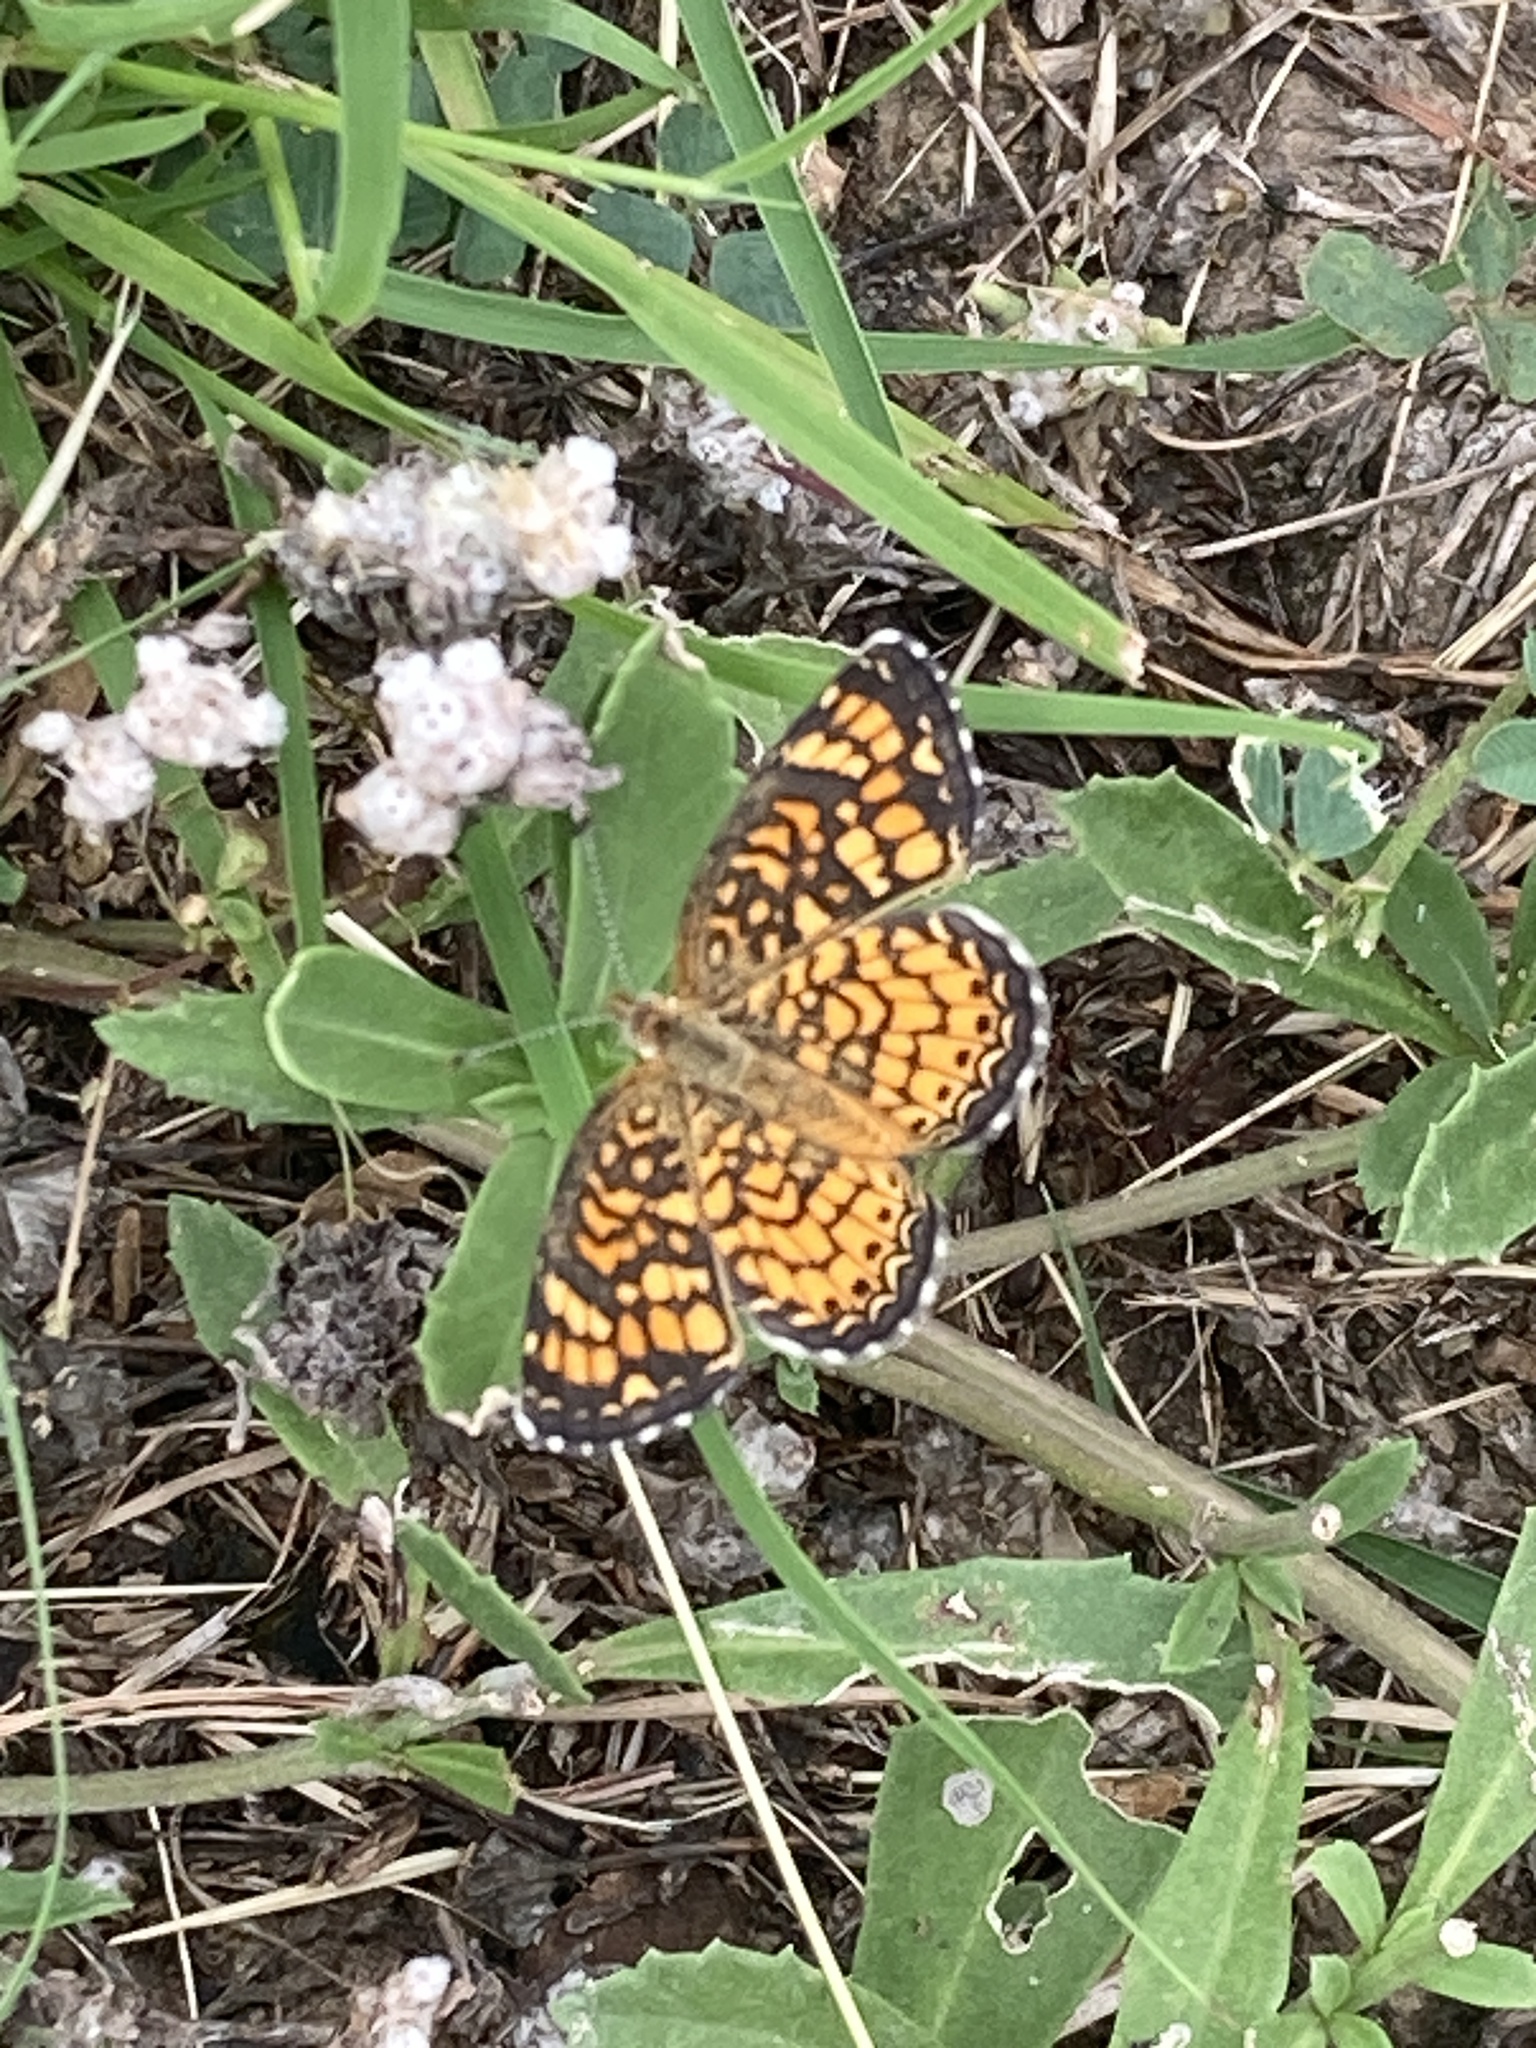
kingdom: Animalia
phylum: Arthropoda
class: Insecta
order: Lepidoptera
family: Nymphalidae
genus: Phyciodes
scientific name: Phyciodes vesta
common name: Vesta crescent
